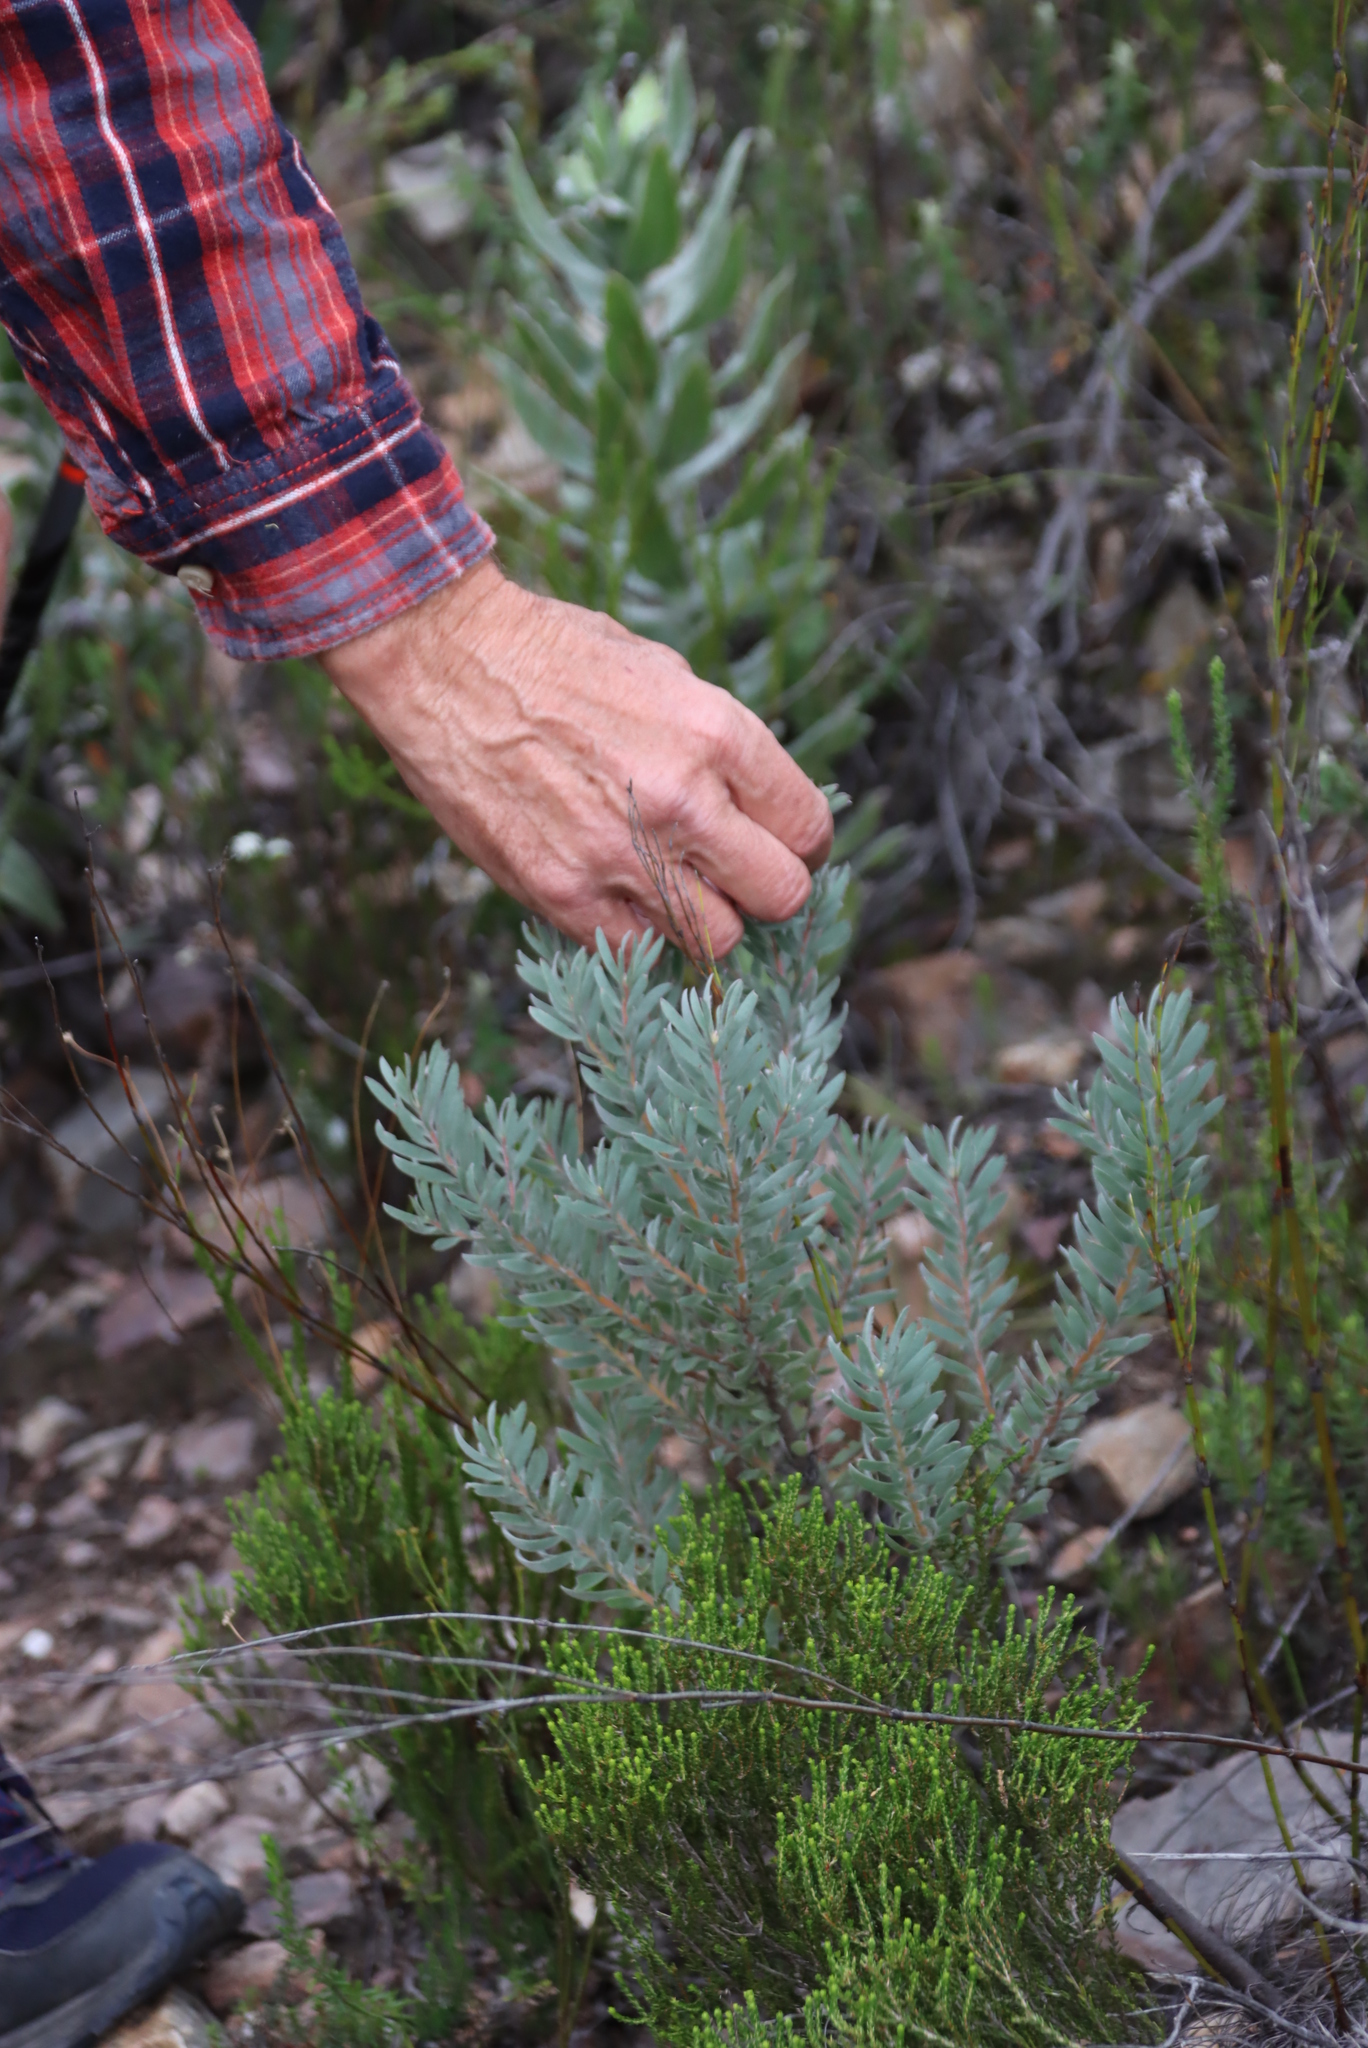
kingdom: Plantae
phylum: Tracheophyta
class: Magnoliopsida
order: Proteales
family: Proteaceae
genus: Leucospermum
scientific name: Leucospermum wittebergense
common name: Swartberg pincushion
